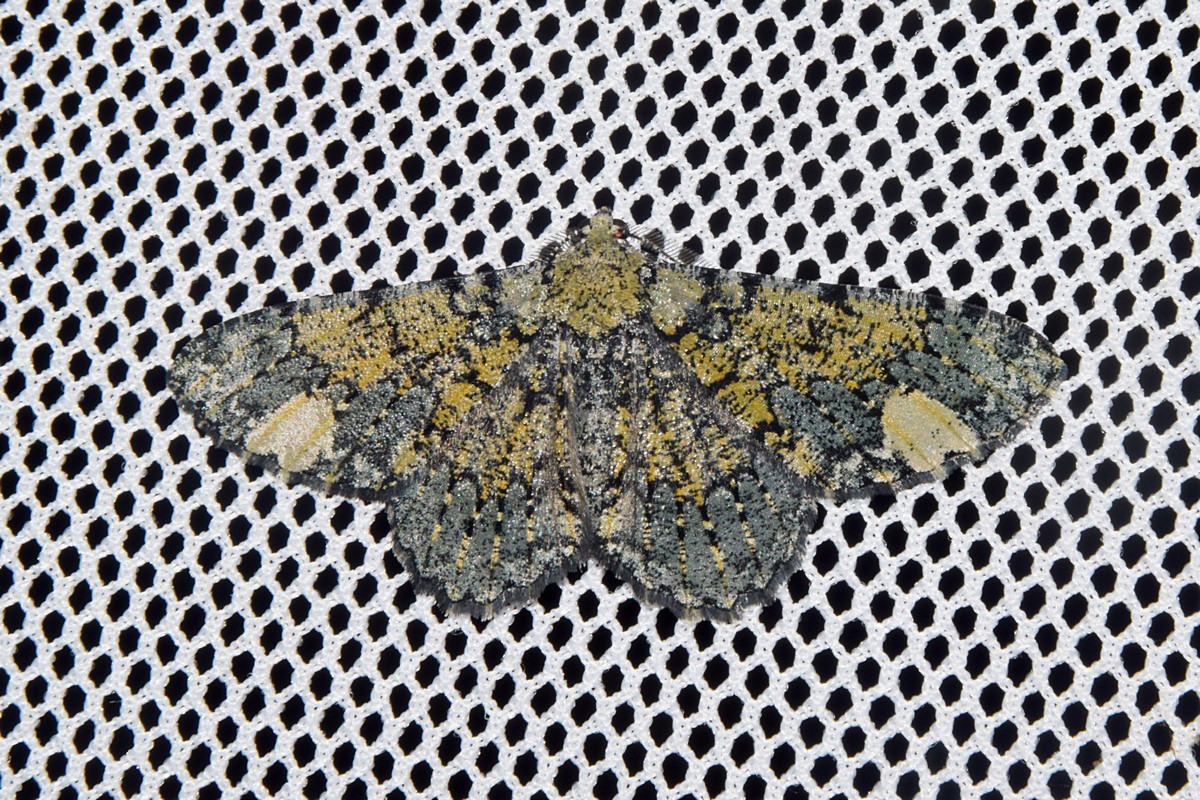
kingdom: Animalia
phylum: Arthropoda
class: Insecta
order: Lepidoptera
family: Geometridae
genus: Ophthalmitis
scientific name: Ophthalmitis xanthypochlora
